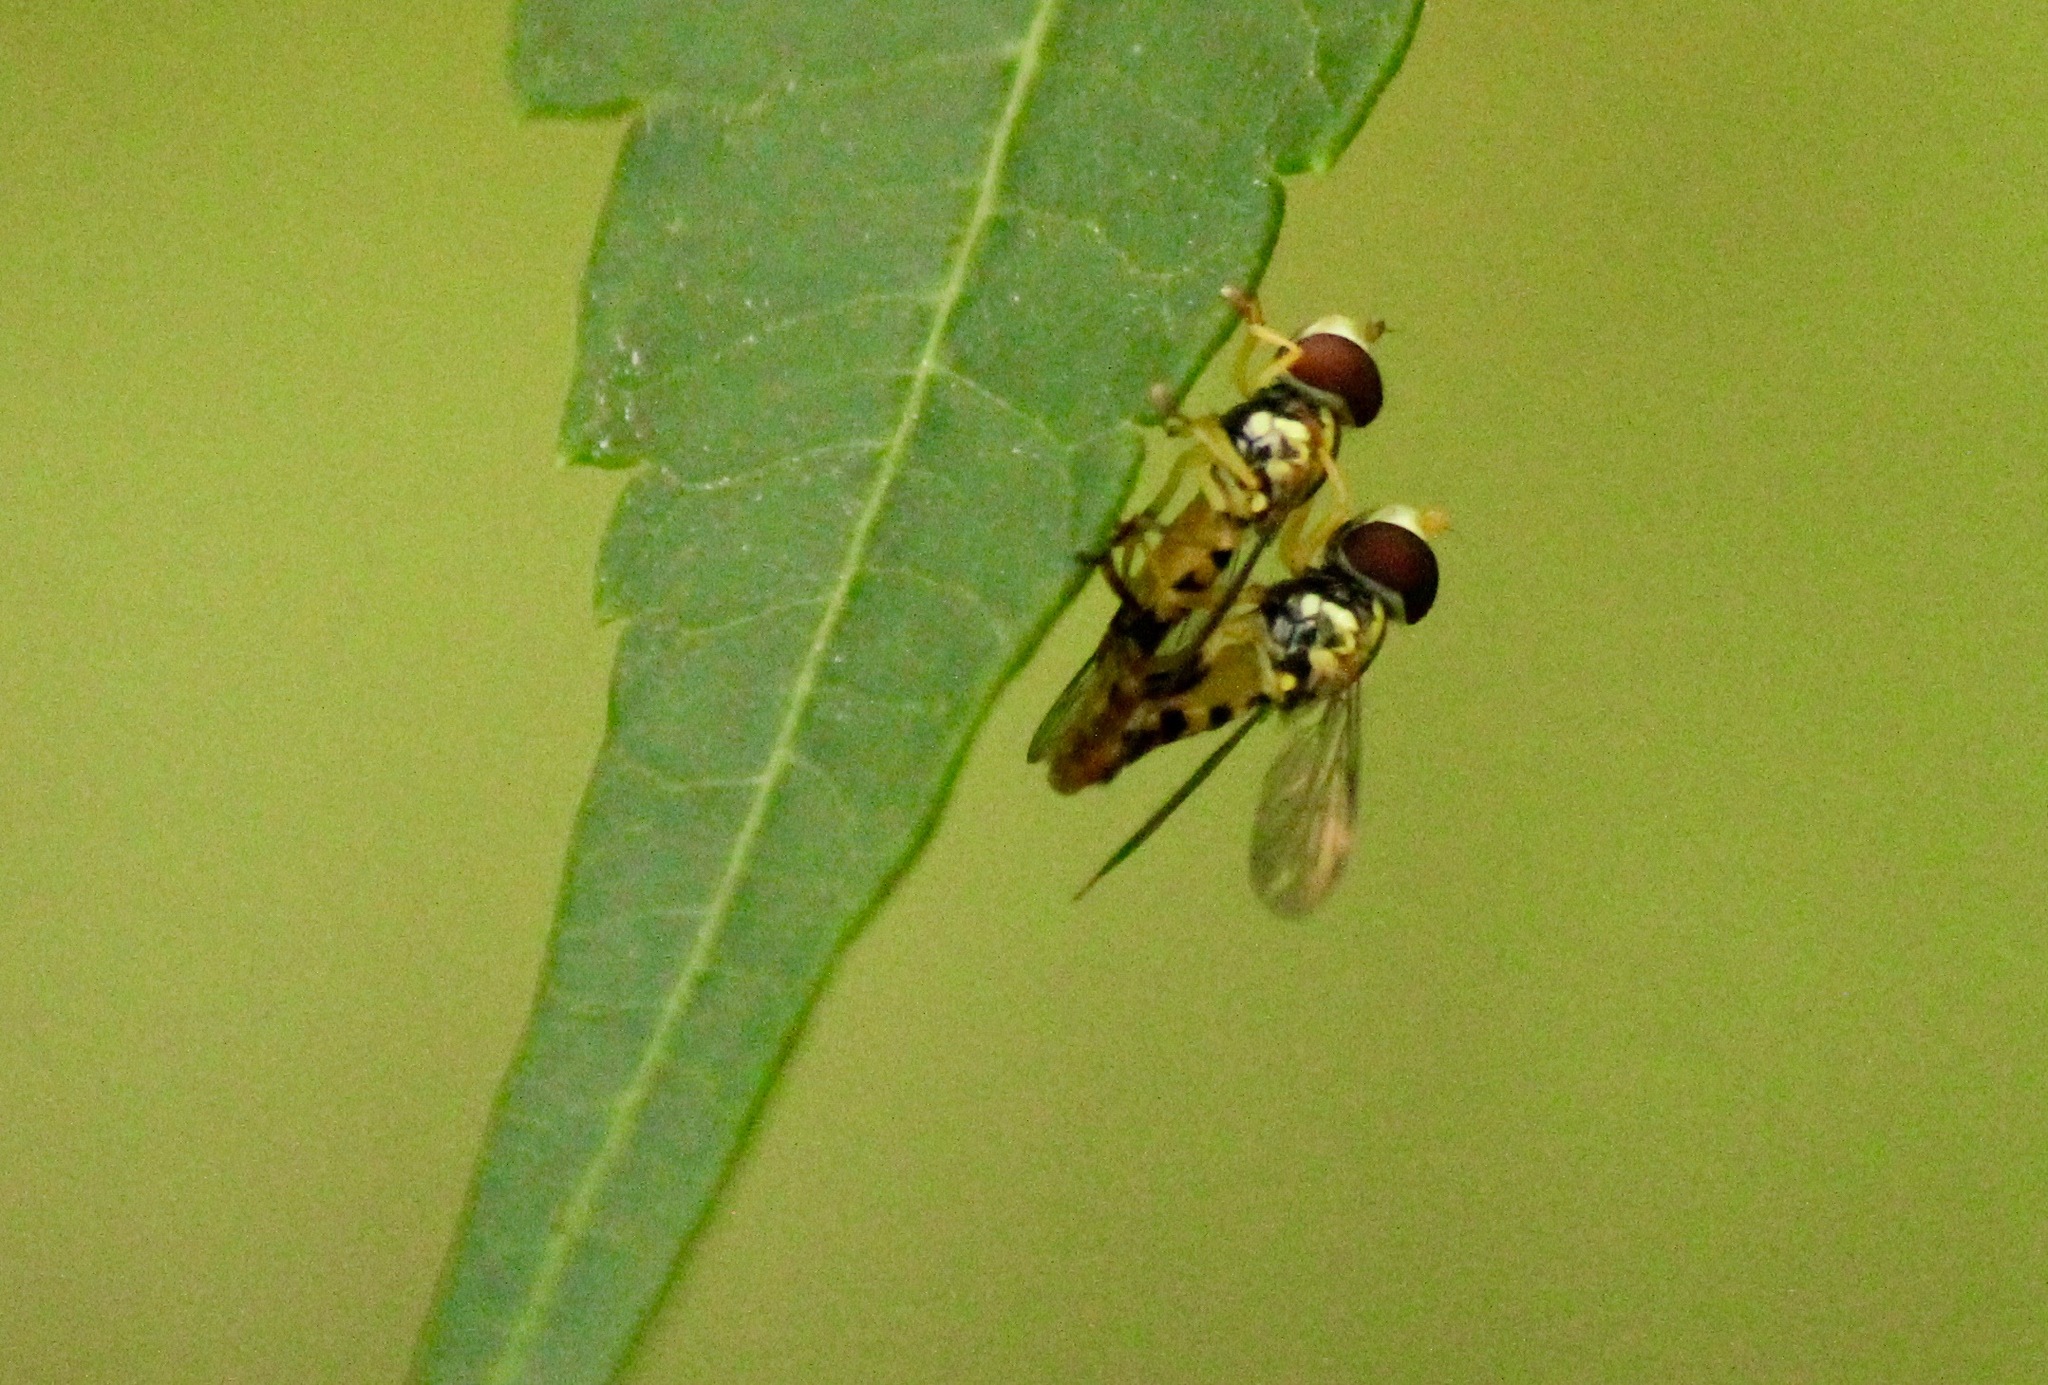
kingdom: Animalia
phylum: Arthropoda
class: Insecta
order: Diptera
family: Syrphidae
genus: Toxomerus
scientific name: Toxomerus geminatus
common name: Eastern calligrapher
